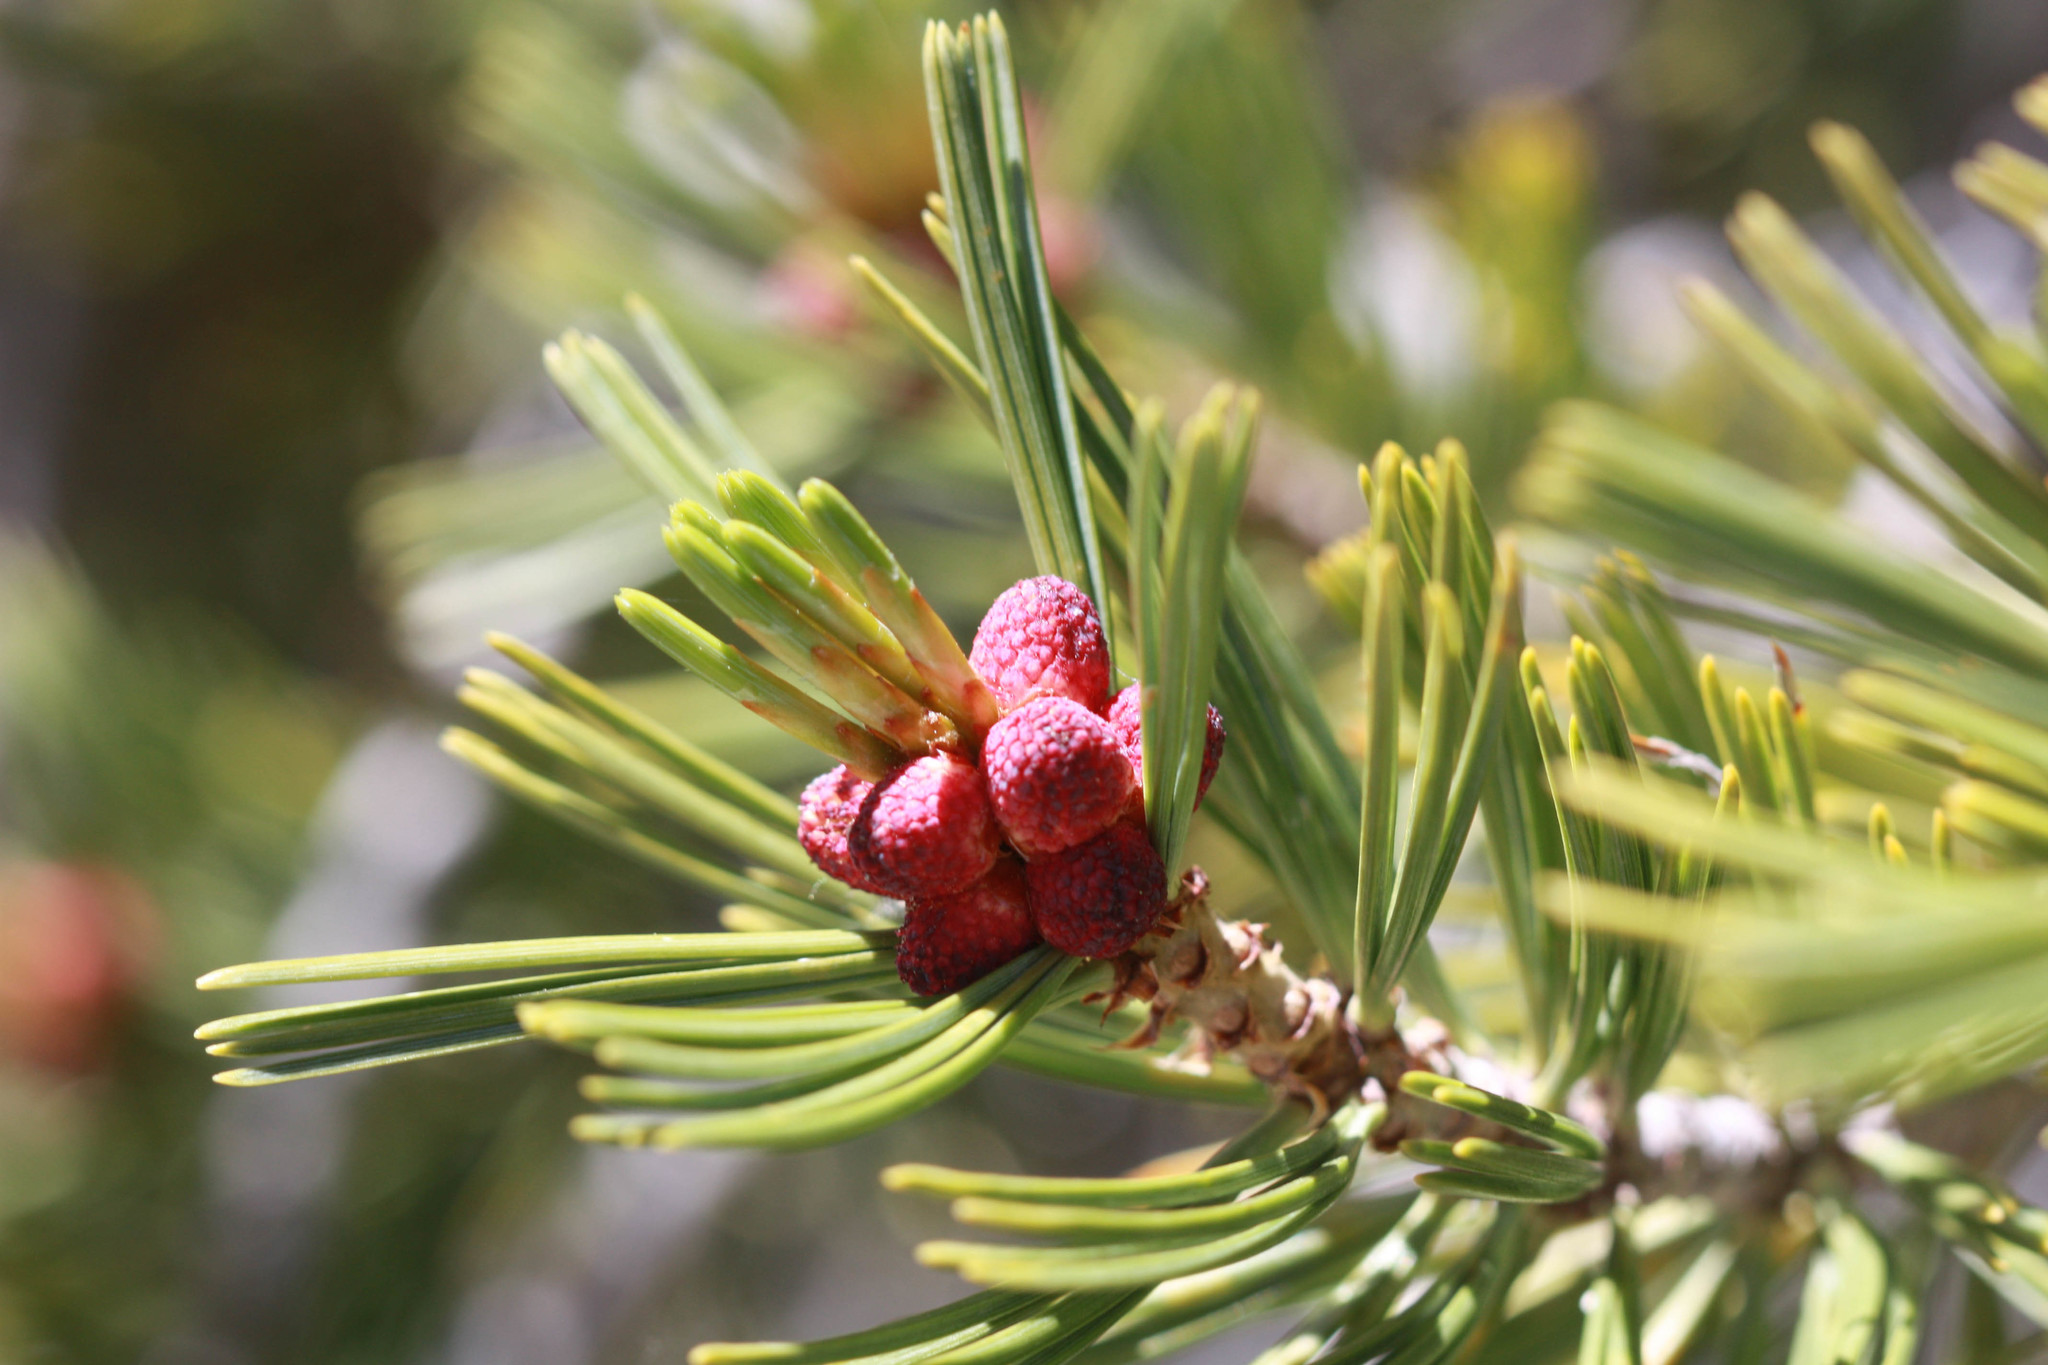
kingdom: Plantae
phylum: Tracheophyta
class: Pinopsida
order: Pinales
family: Pinaceae
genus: Pinus
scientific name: Pinus albicaulis
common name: Whitebark pine
